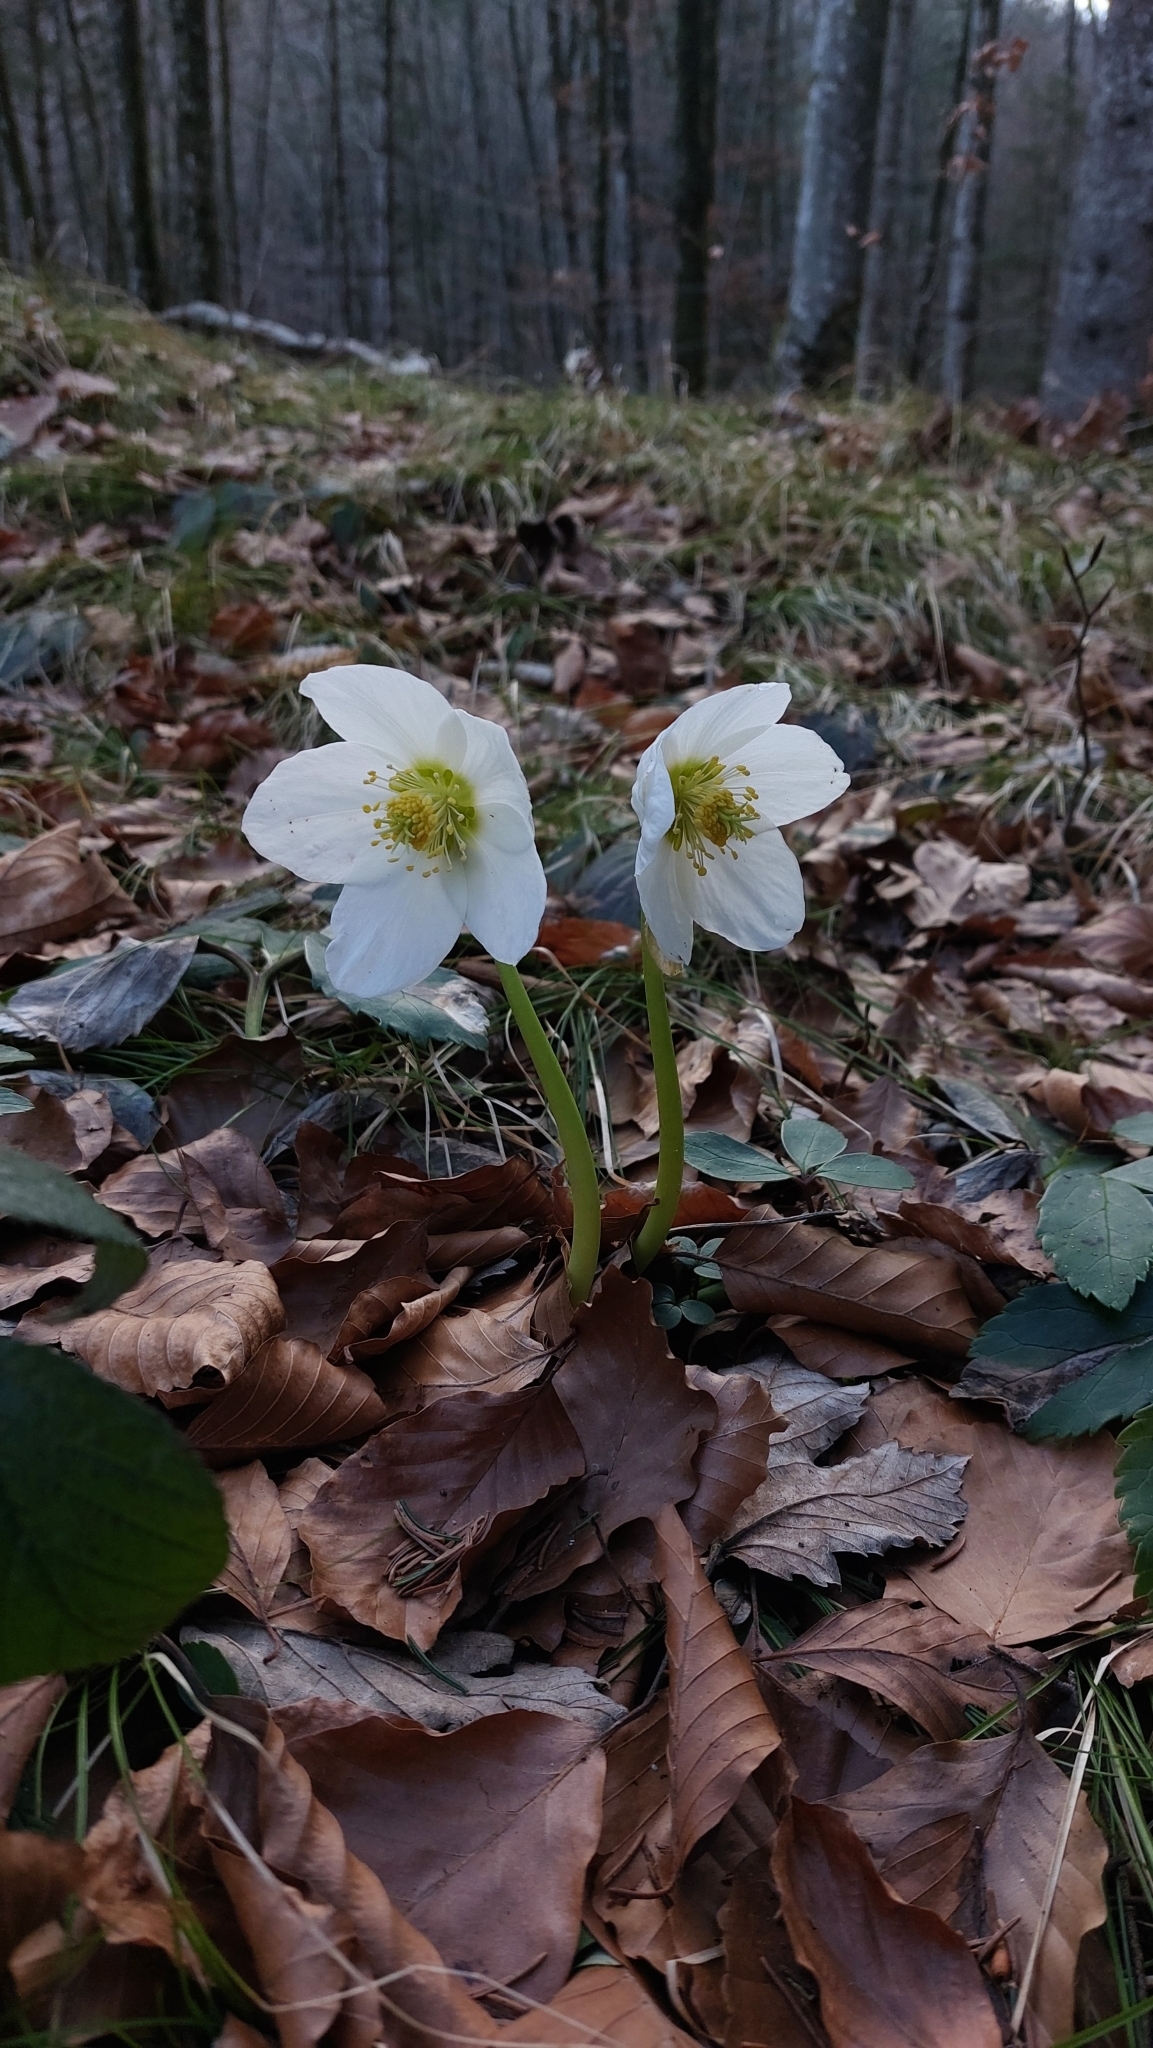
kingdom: Plantae
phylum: Tracheophyta
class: Magnoliopsida
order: Ranunculales
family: Ranunculaceae
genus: Helleborus
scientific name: Helleborus niger
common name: Black hellebore
